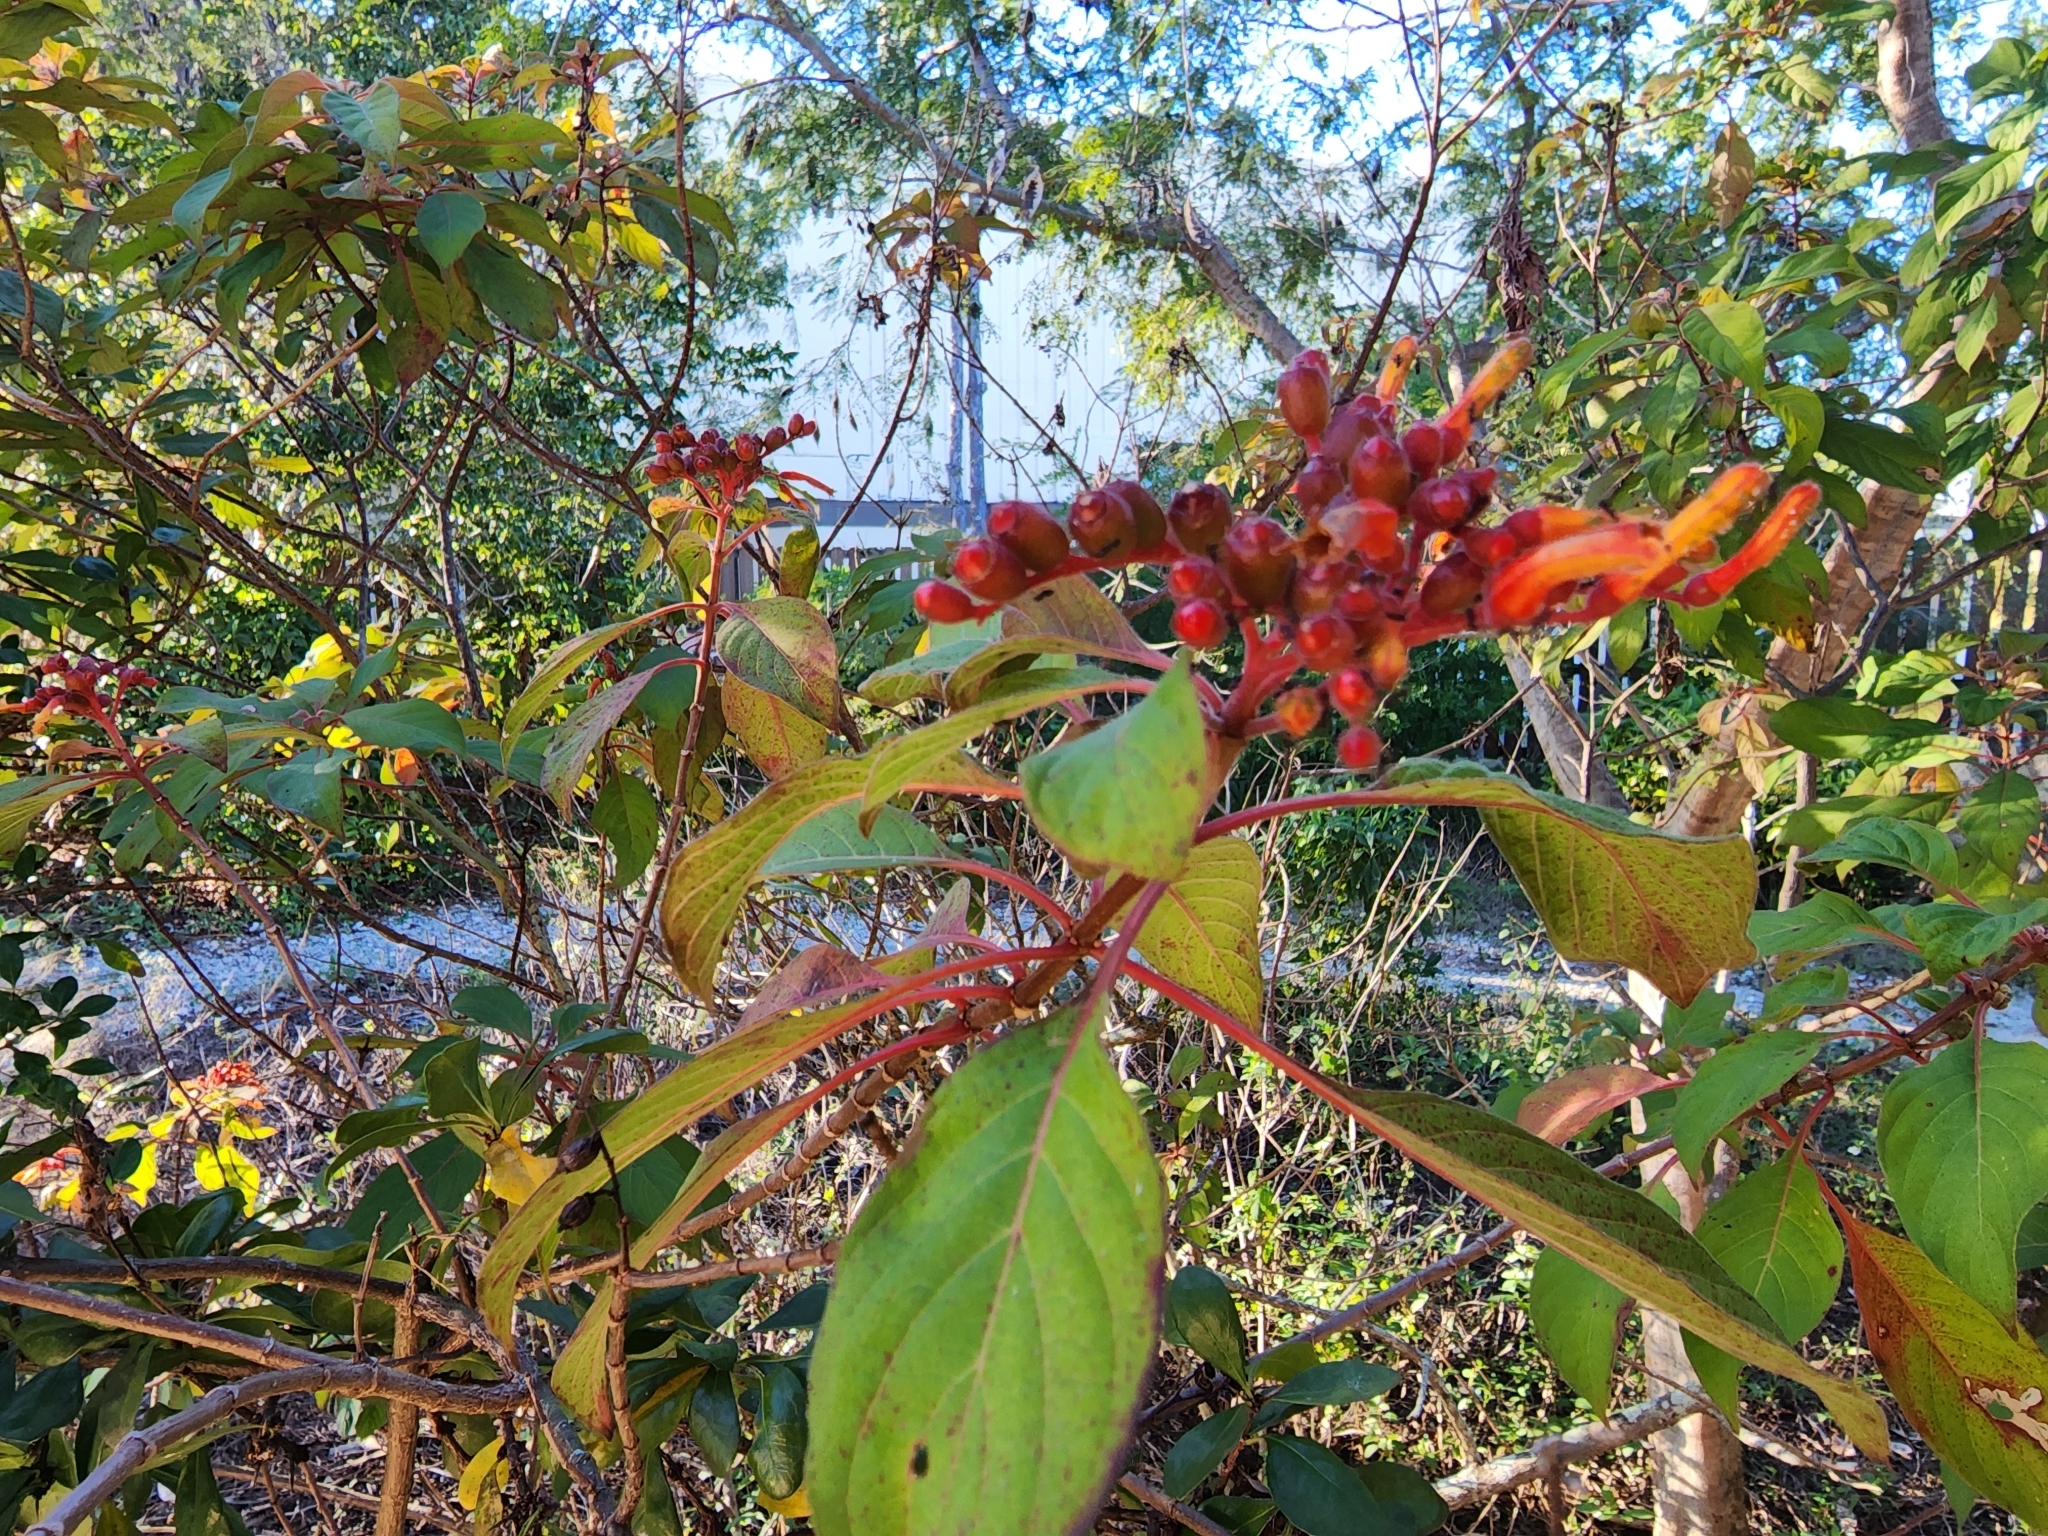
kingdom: Plantae
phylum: Tracheophyta
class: Magnoliopsida
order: Gentianales
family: Rubiaceae
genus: Hamelia
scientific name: Hamelia patens
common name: Redhead
